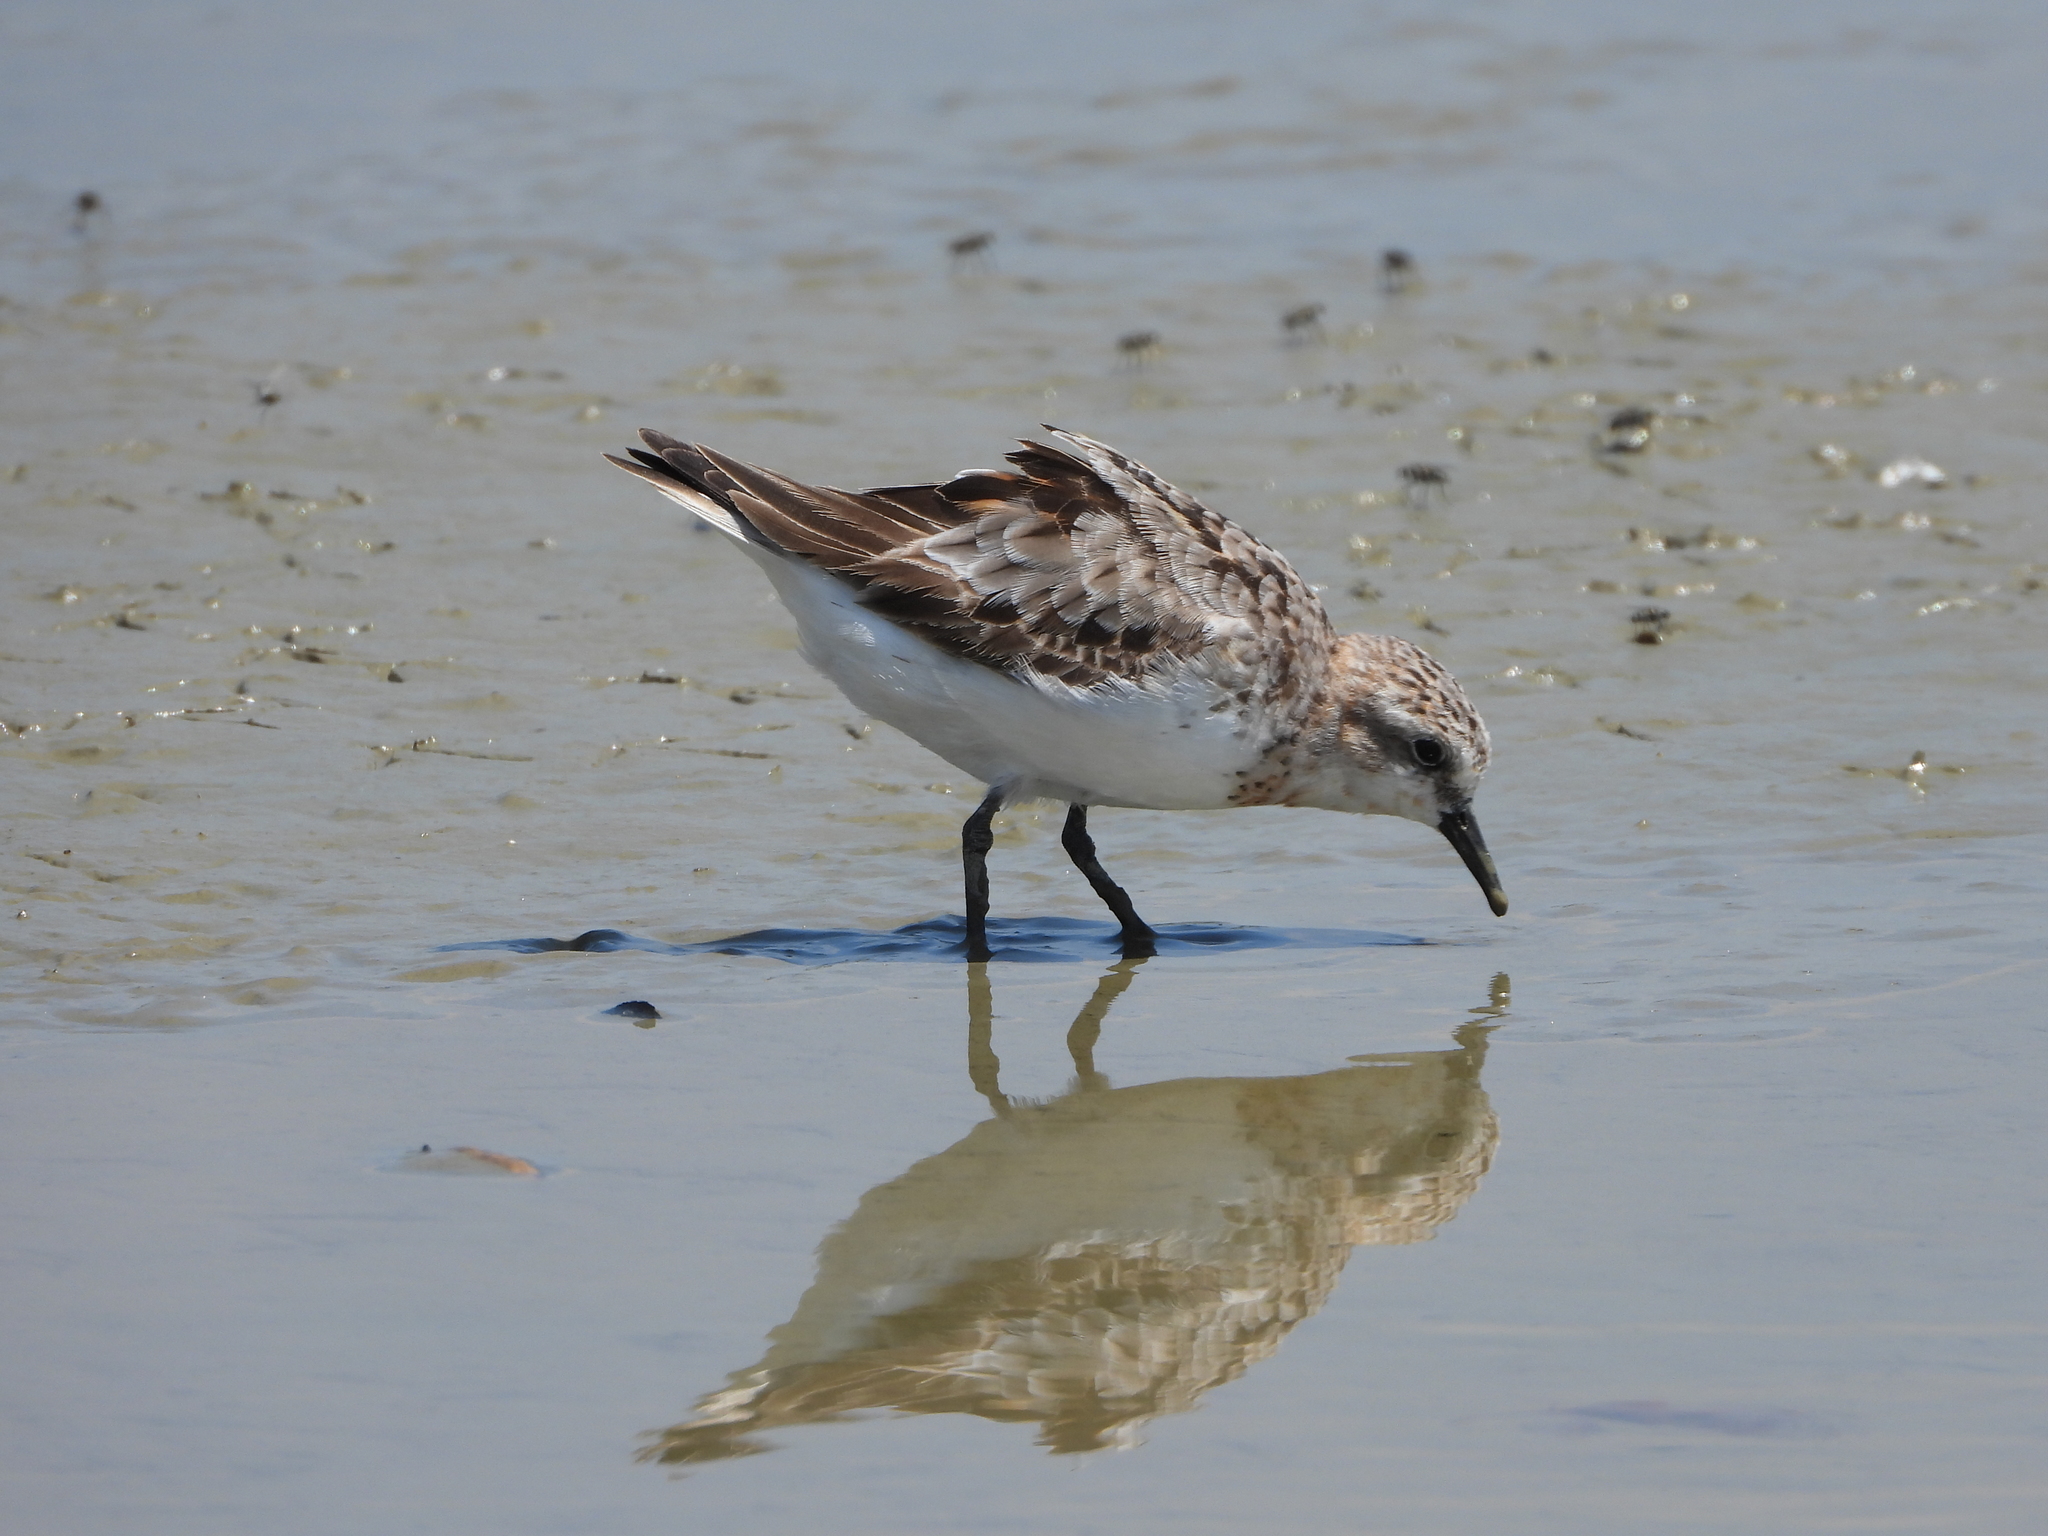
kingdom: Animalia
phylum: Chordata
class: Aves
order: Charadriiformes
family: Scolopacidae
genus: Calidris
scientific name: Calidris ruficollis
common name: Red-necked stint
